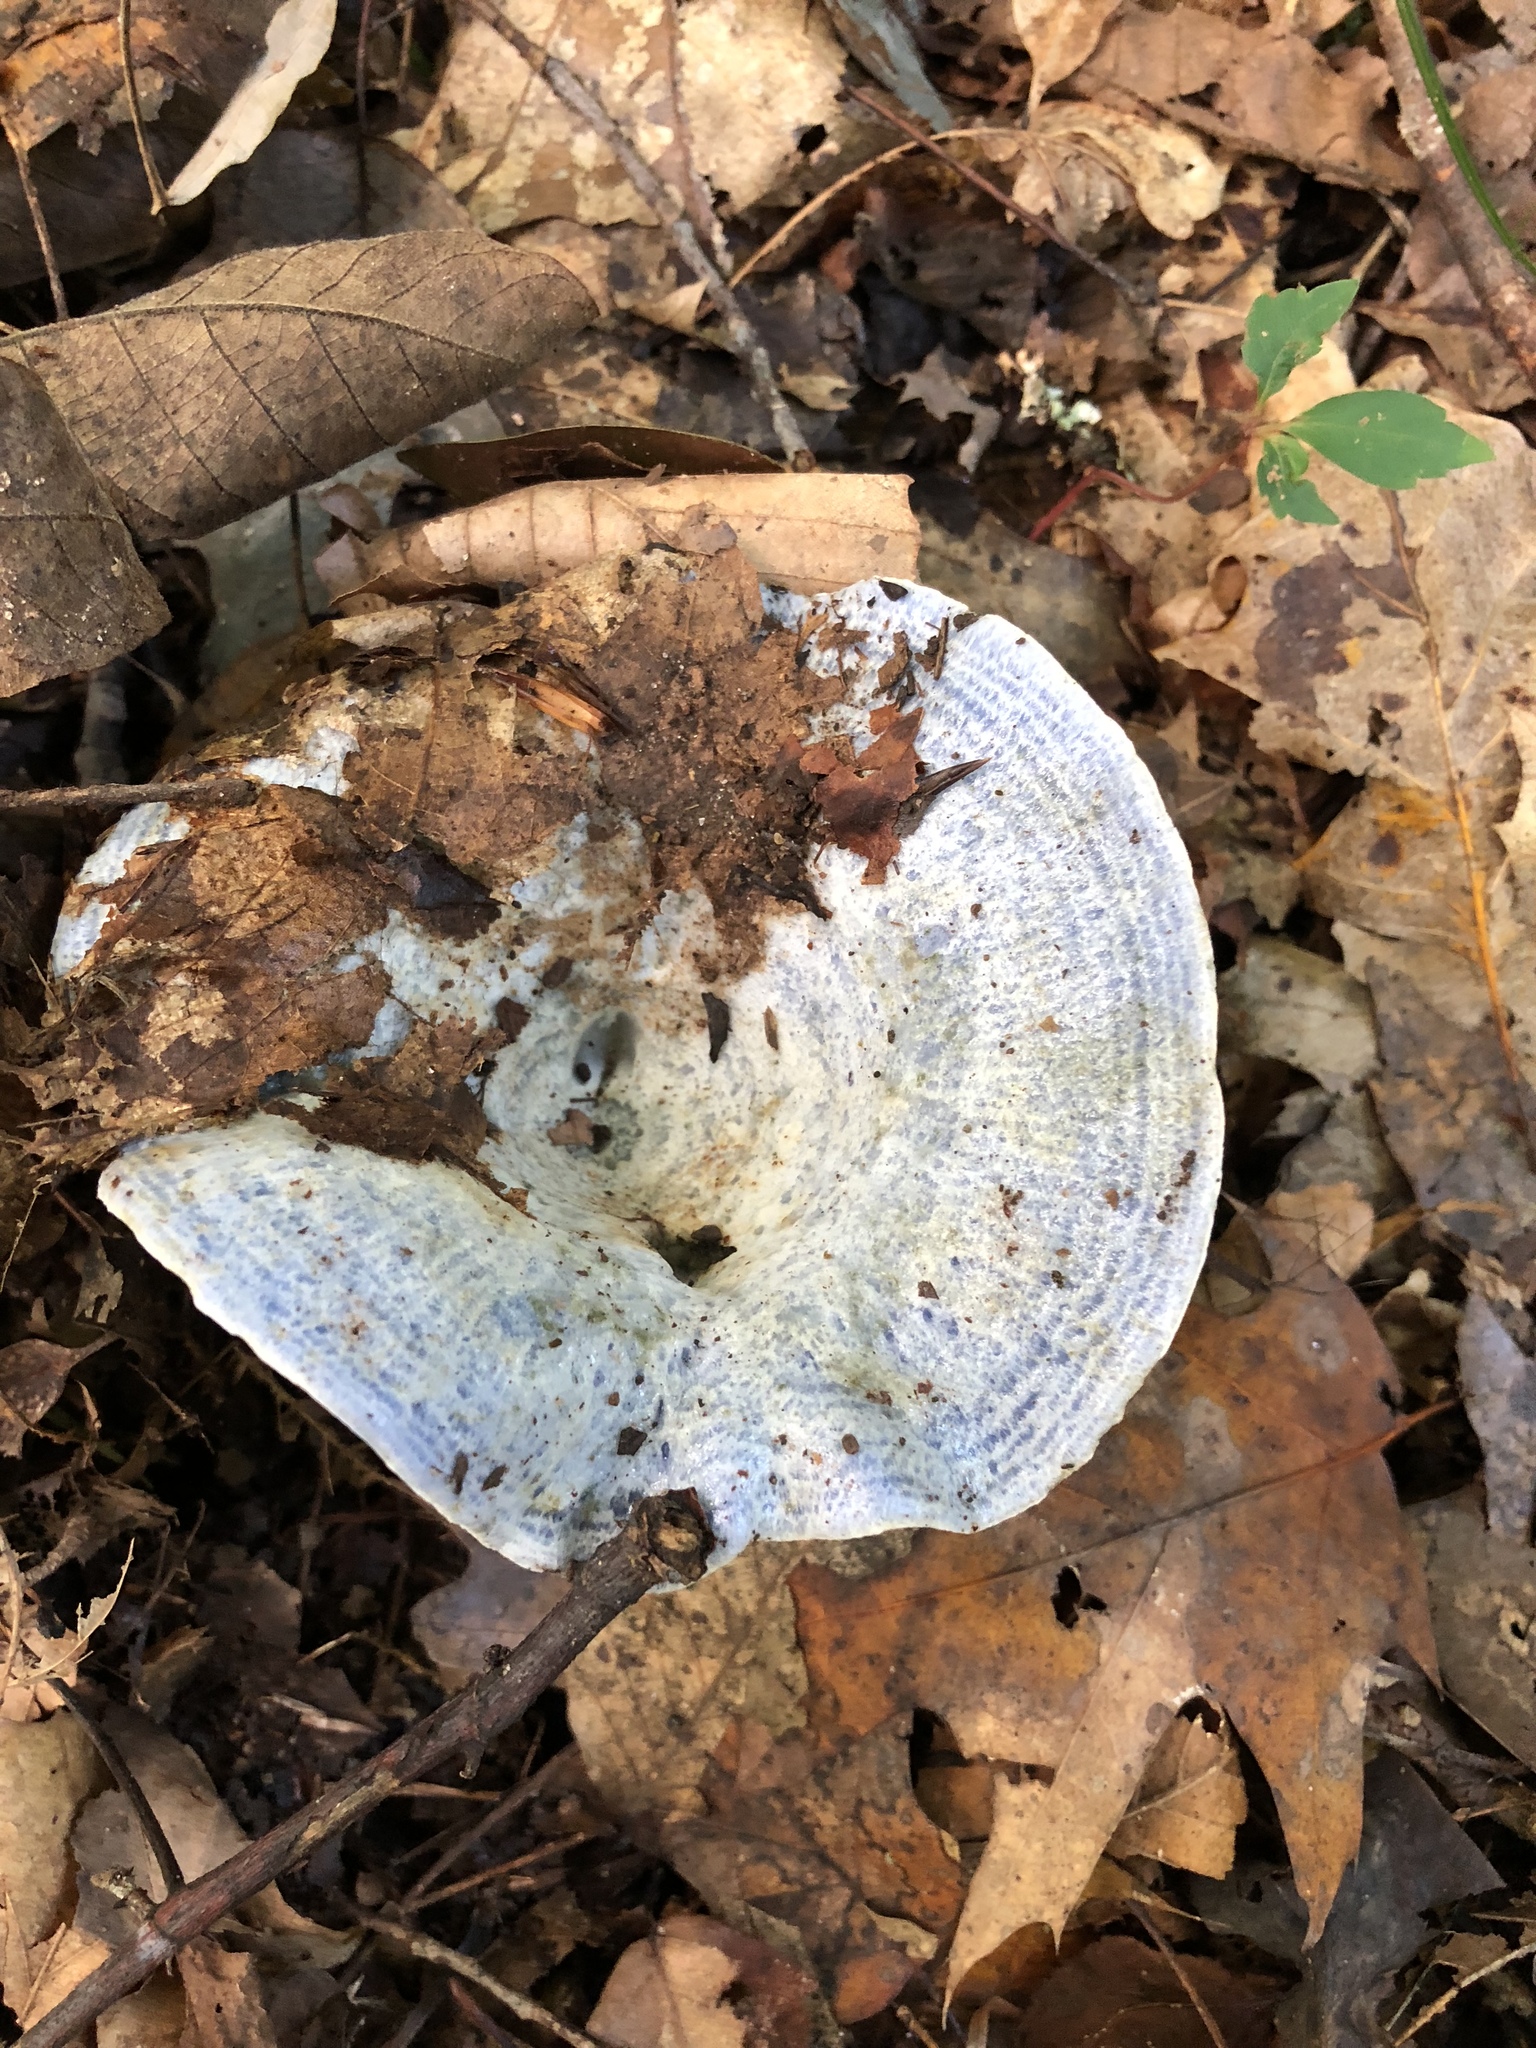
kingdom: Fungi
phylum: Basidiomycota
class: Agaricomycetes
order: Russulales
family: Russulaceae
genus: Lactarius
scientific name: Lactarius indigo
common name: Indigo milk cap
